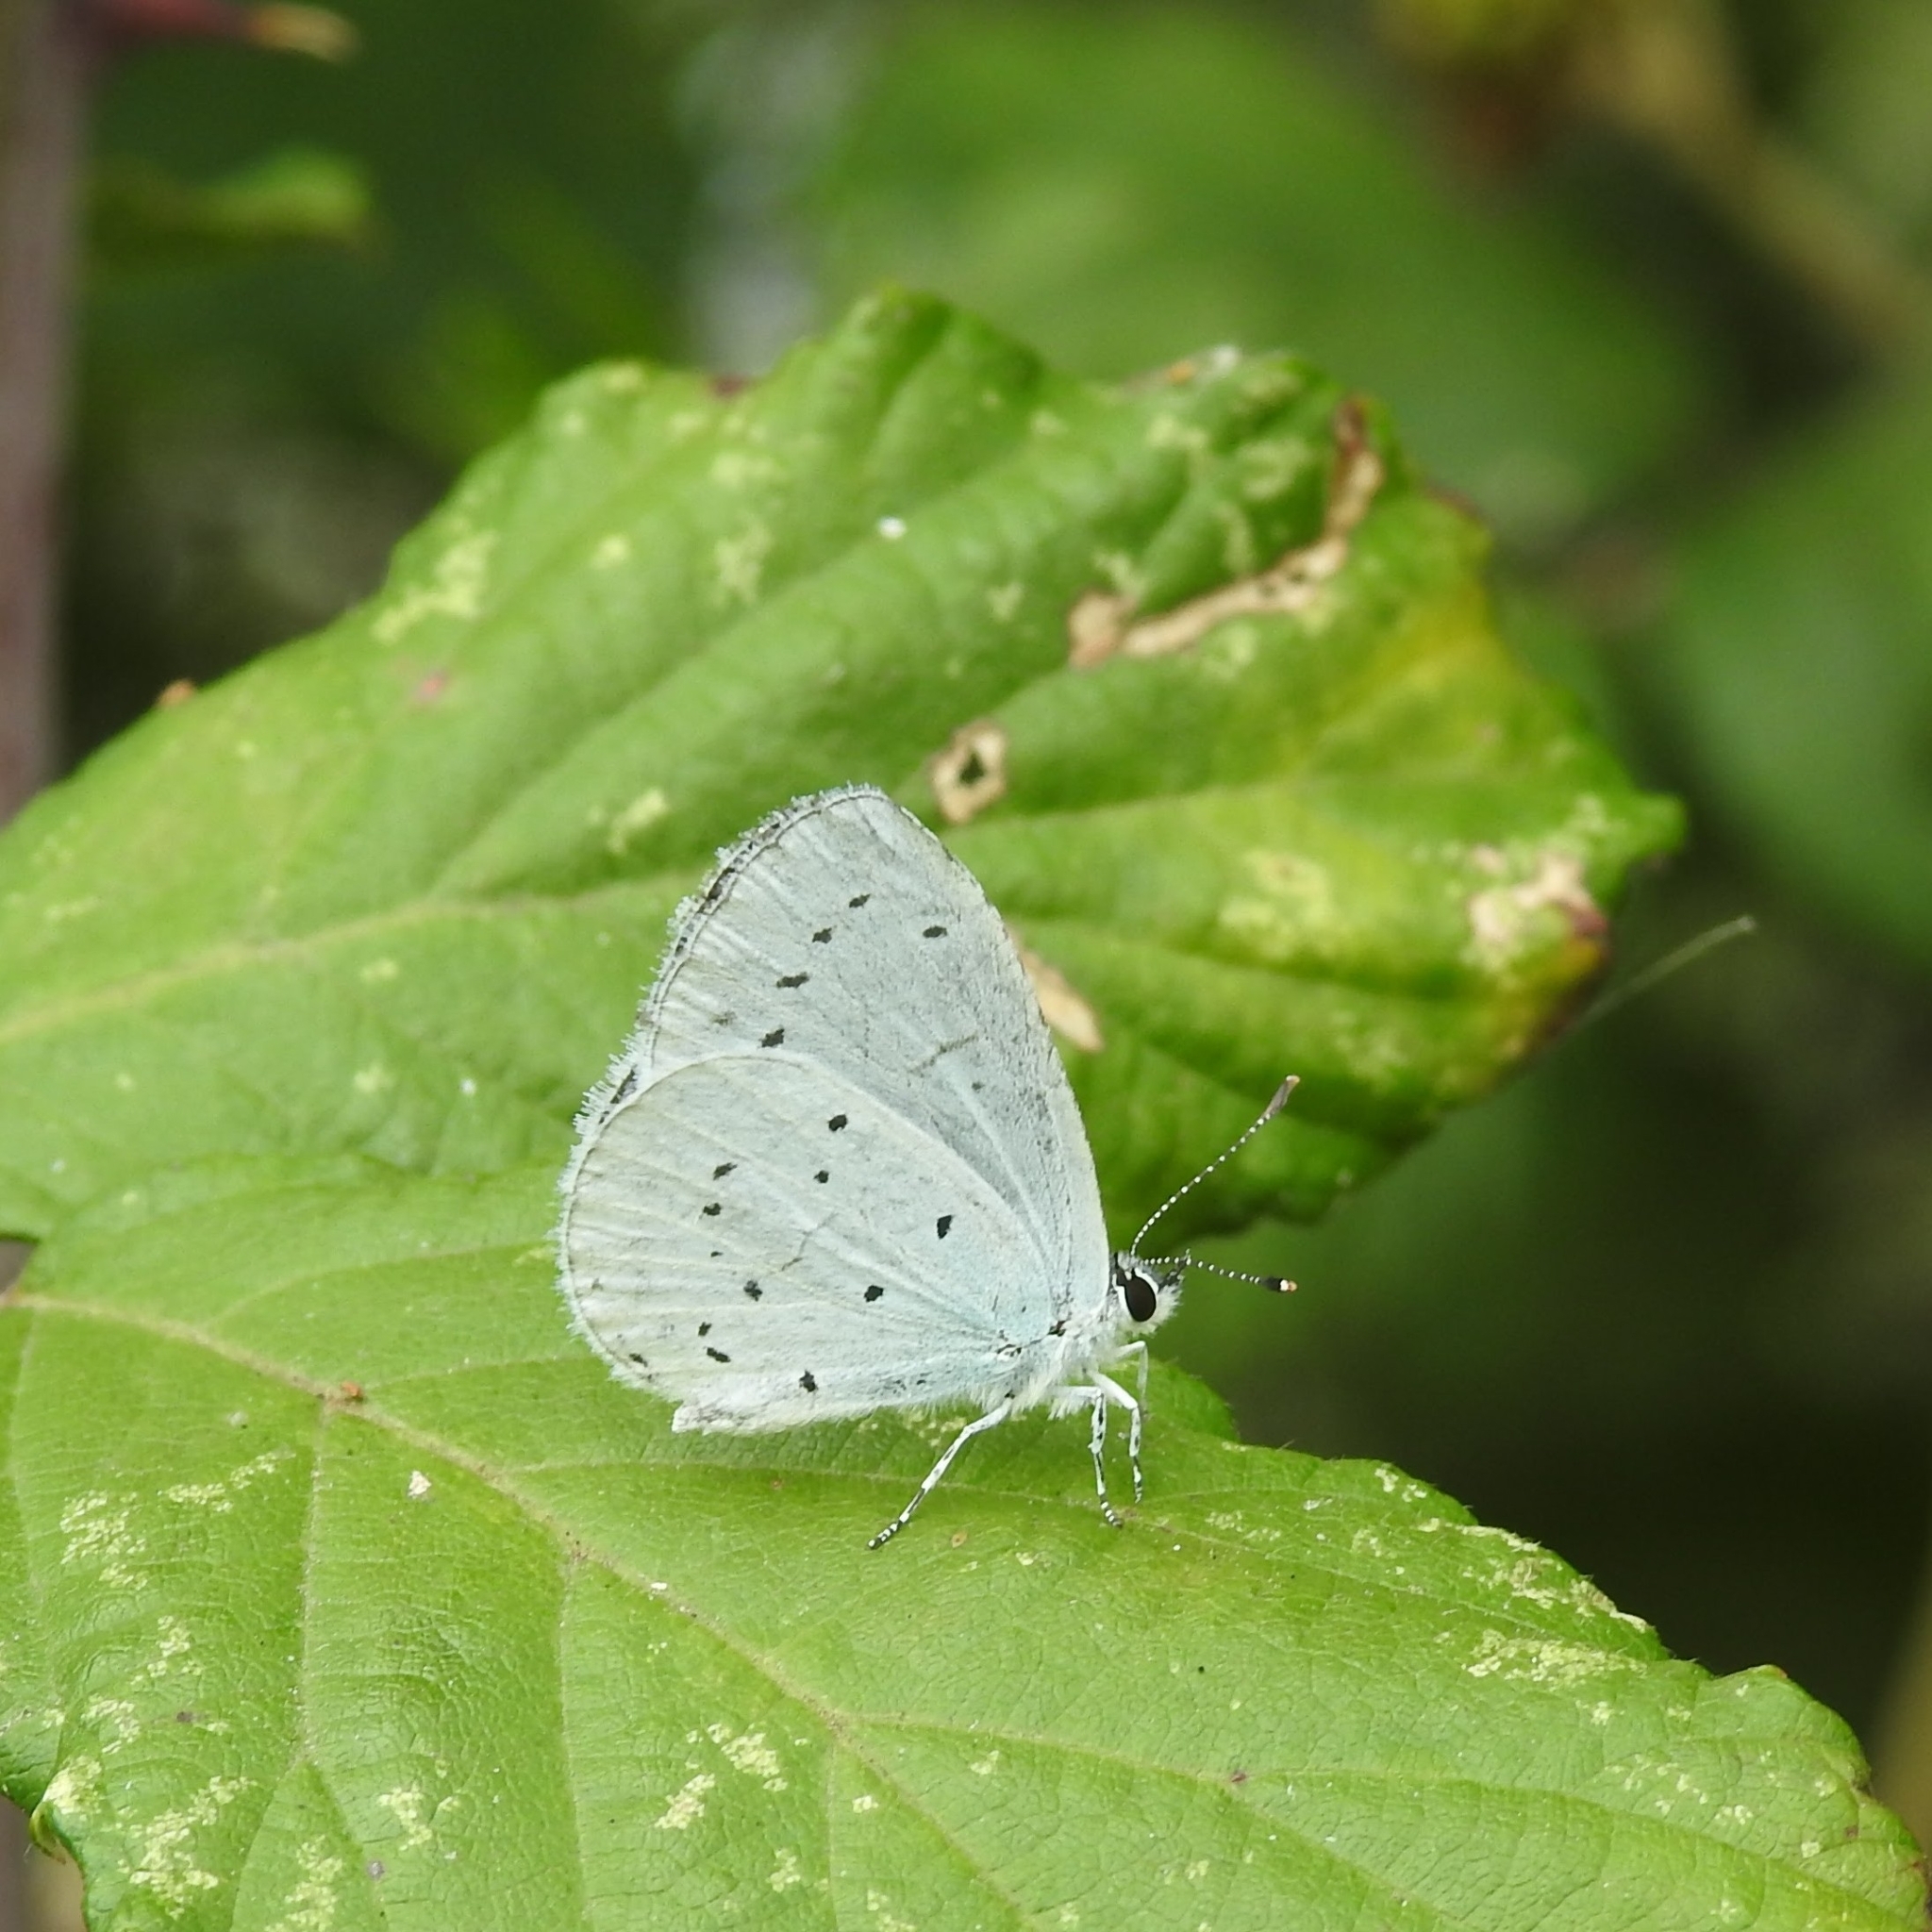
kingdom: Animalia
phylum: Arthropoda
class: Insecta
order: Lepidoptera
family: Lycaenidae
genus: Celastrina
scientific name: Celastrina argiolus
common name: Holly blue
